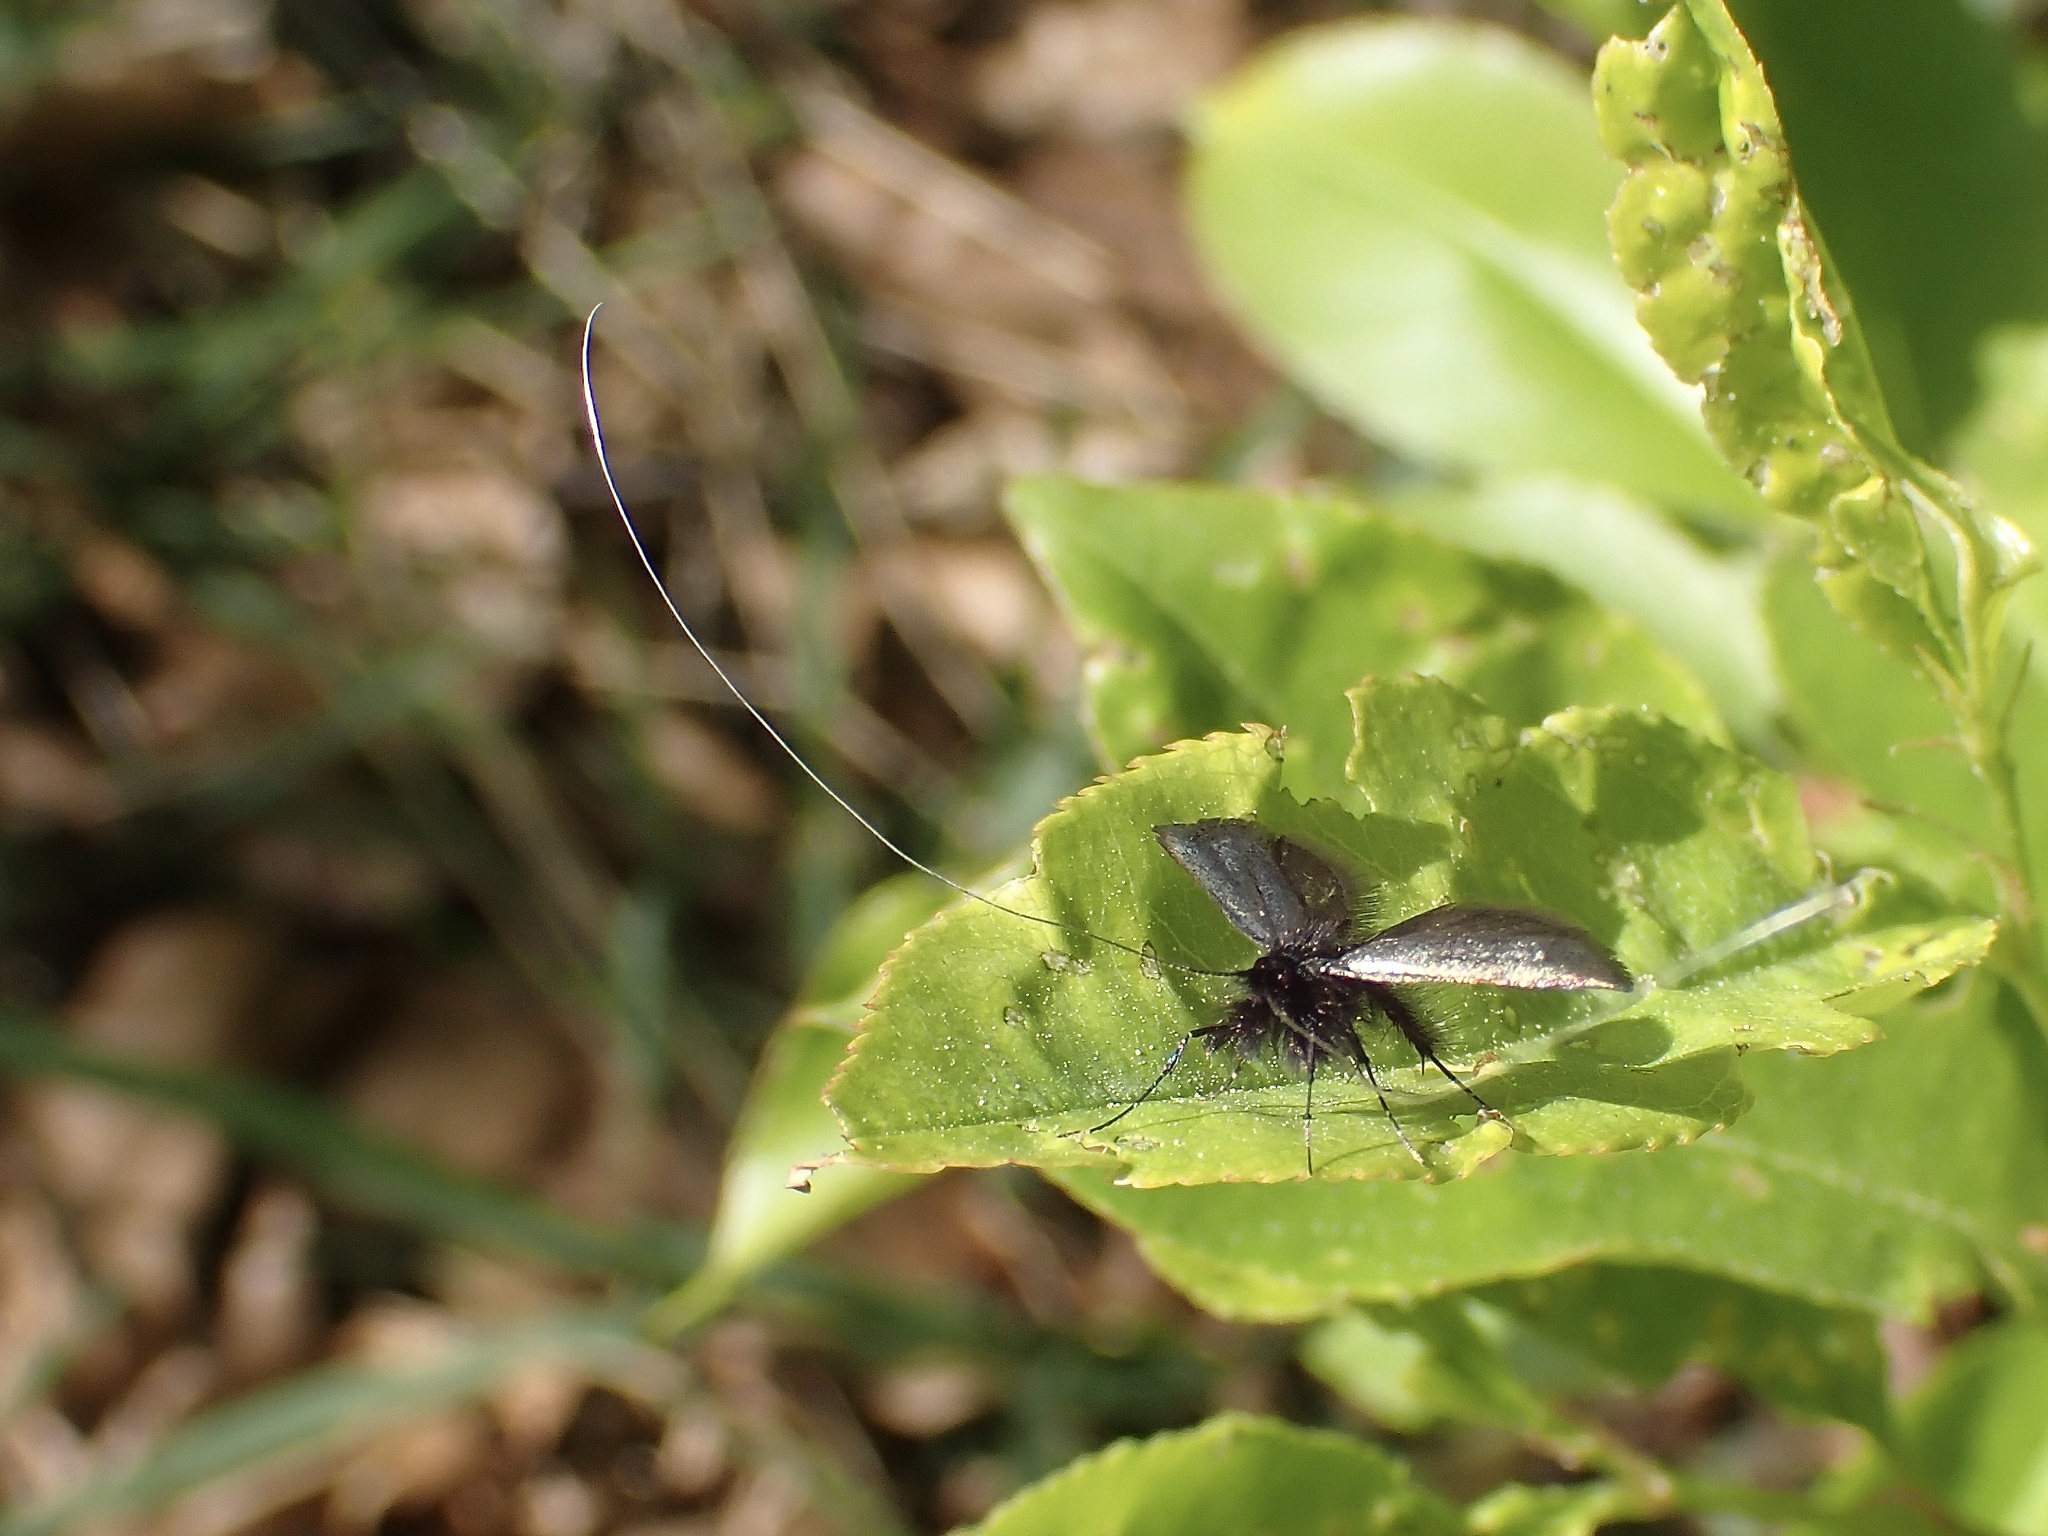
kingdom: Animalia
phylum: Arthropoda
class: Insecta
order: Lepidoptera
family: Adelidae
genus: Adela
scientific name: Adela viridella
